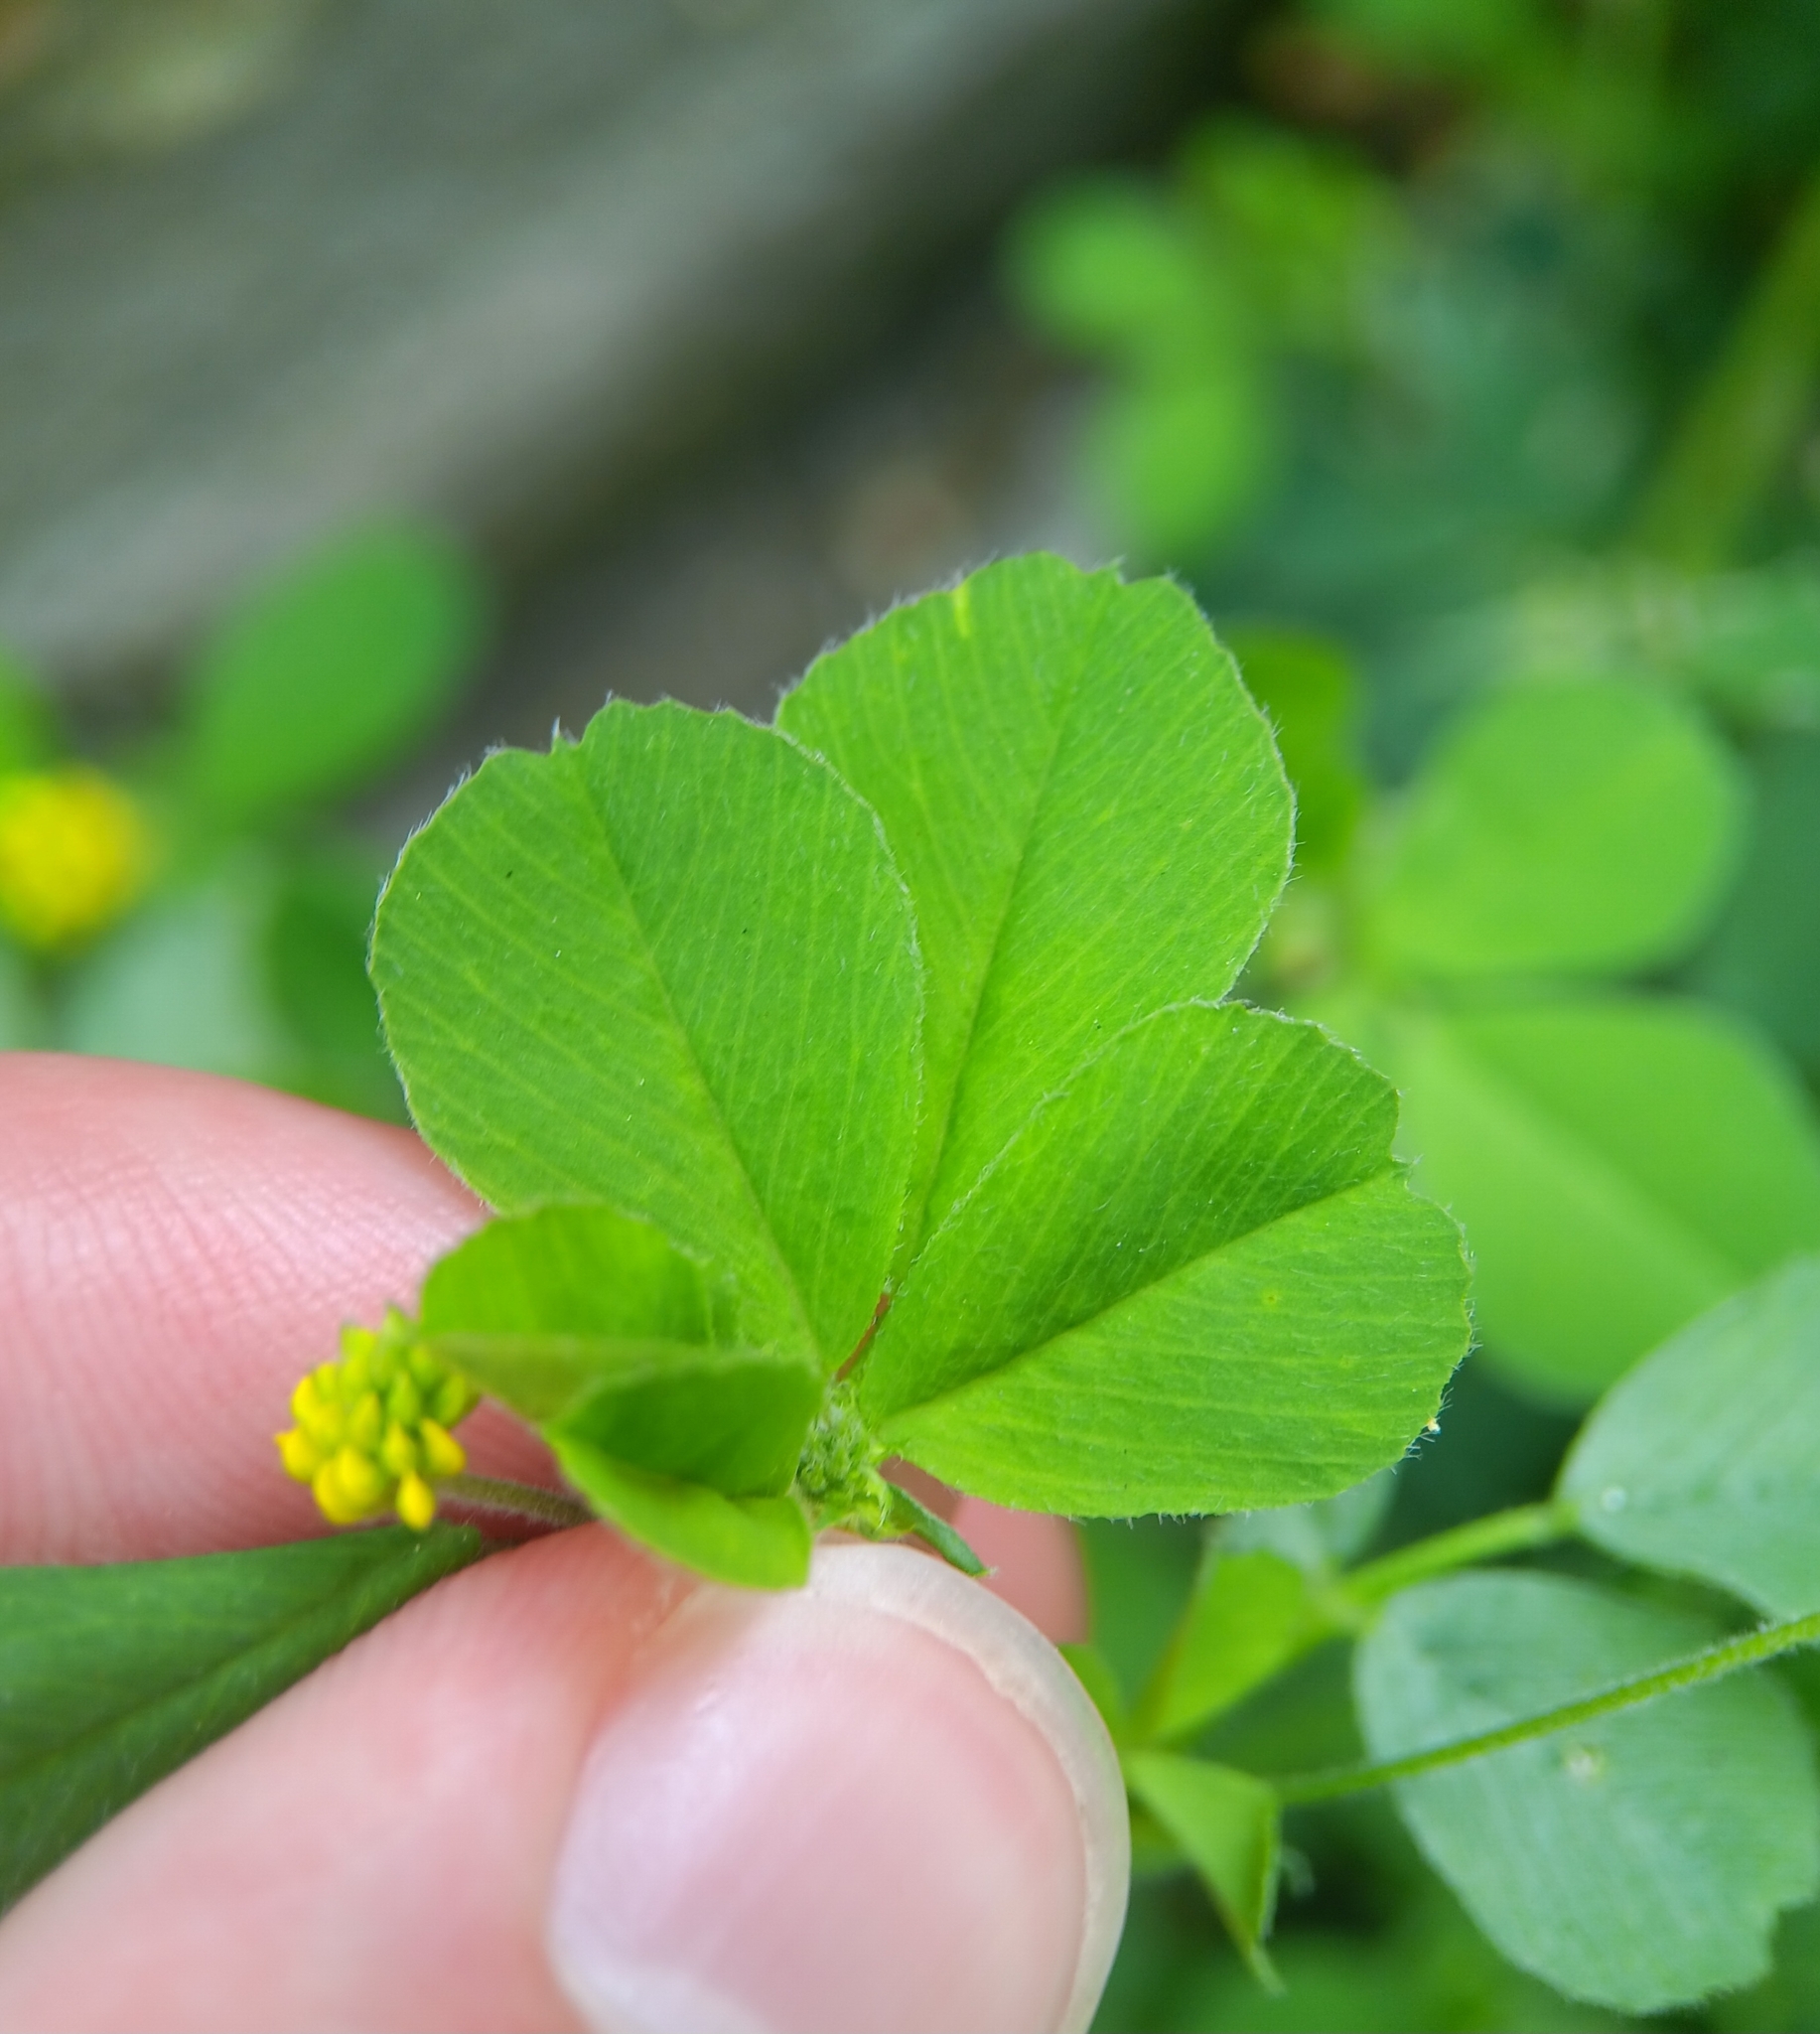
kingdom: Plantae
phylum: Tracheophyta
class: Magnoliopsida
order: Fabales
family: Fabaceae
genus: Medicago
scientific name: Medicago lupulina
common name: Black medick
